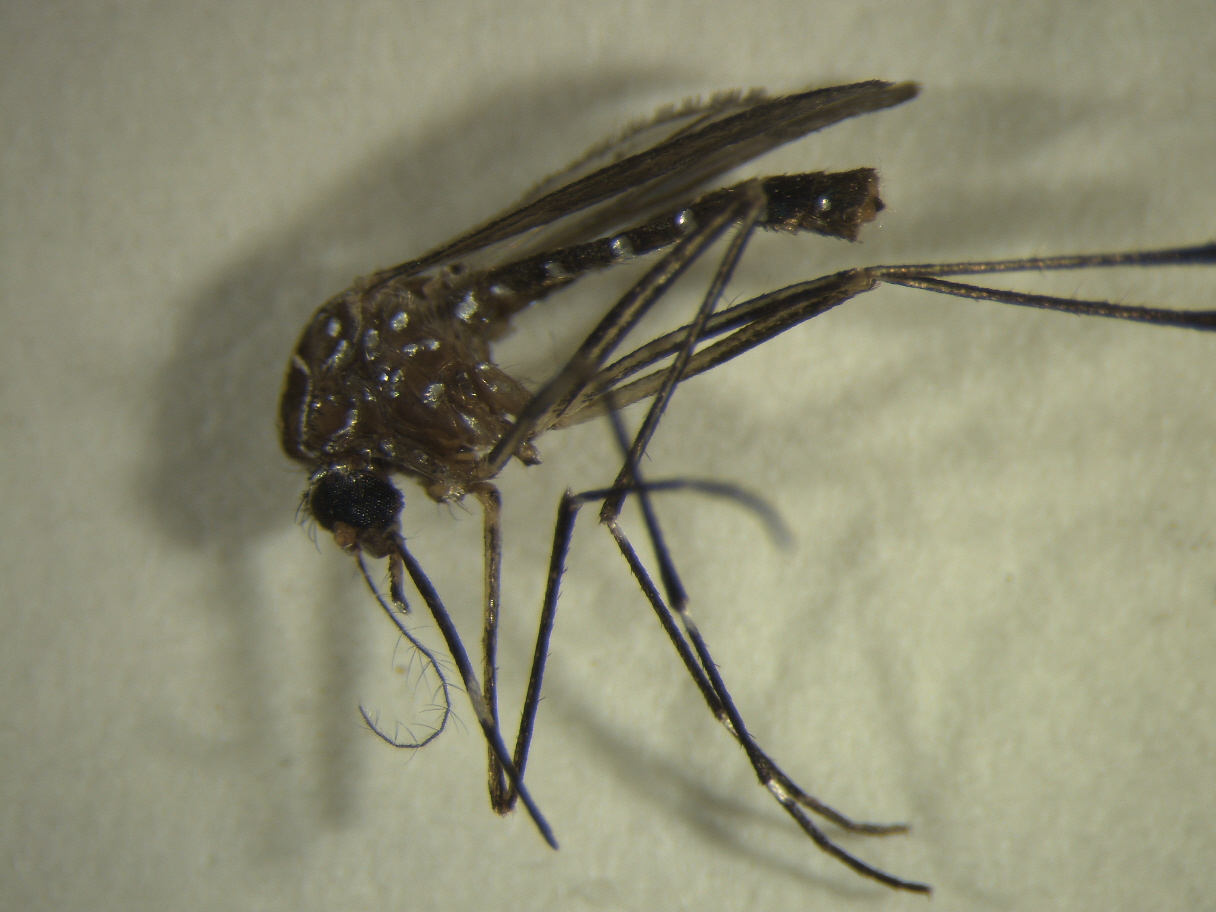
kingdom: Animalia
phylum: Arthropoda
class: Insecta
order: Diptera
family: Culicidae
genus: Aedes
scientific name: Aedes notoscriptus
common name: Australian backyard mosquito
